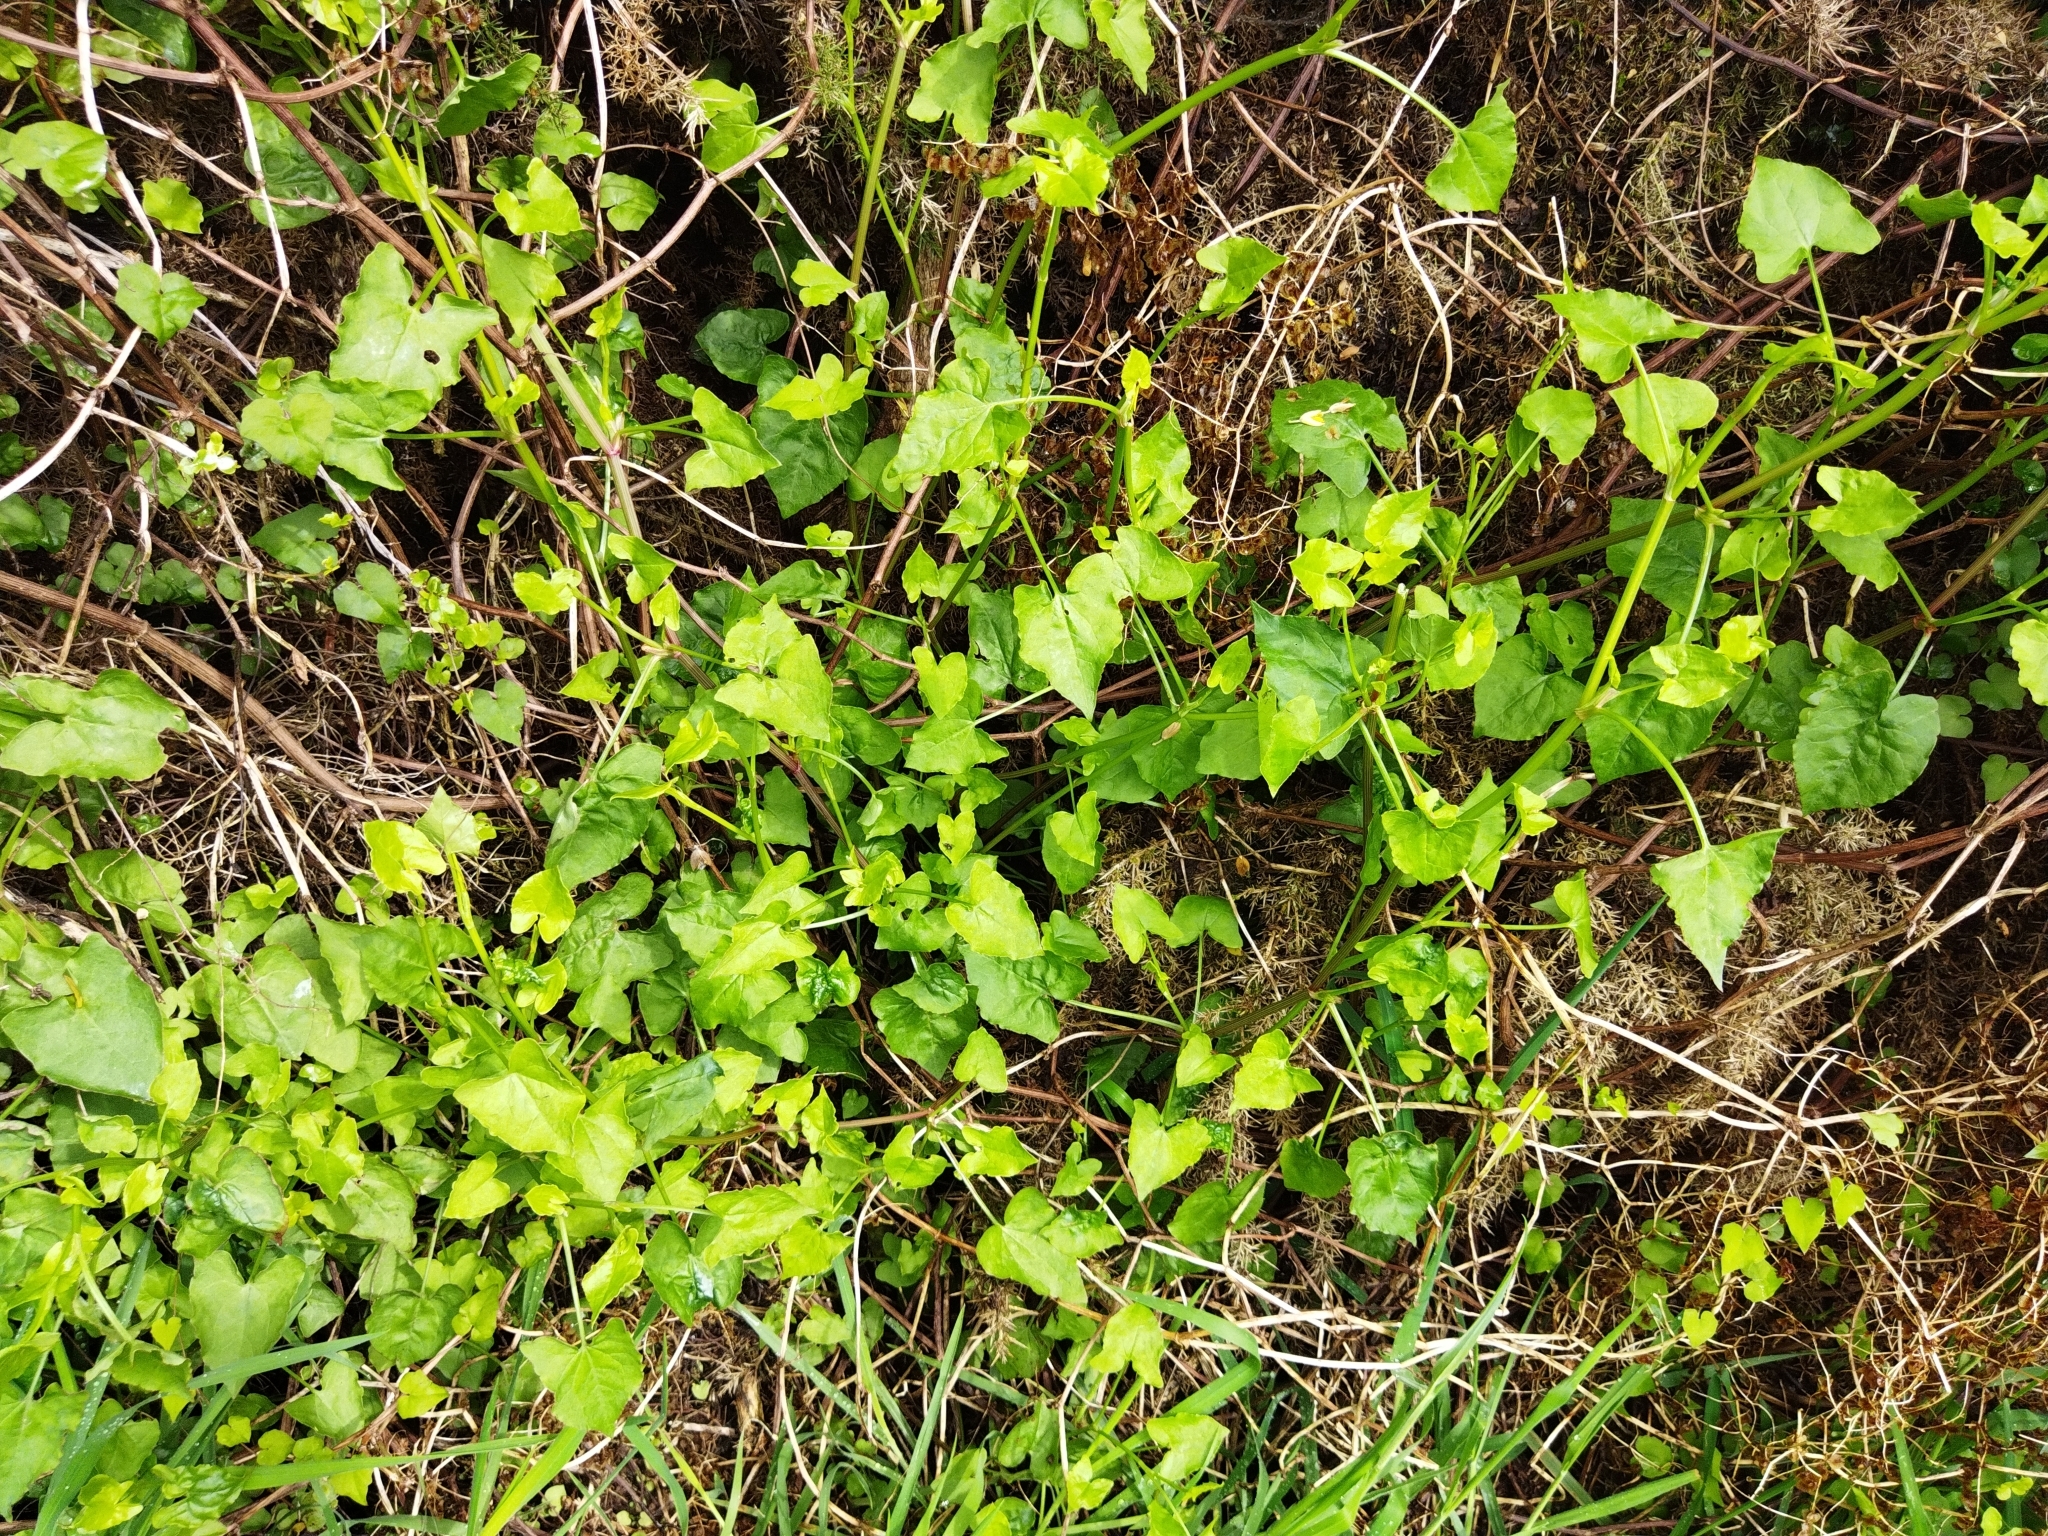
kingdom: Plantae
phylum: Tracheophyta
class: Magnoliopsida
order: Caryophyllales
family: Polygonaceae
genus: Rumex
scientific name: Rumex sagittatus
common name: Climbing dock
